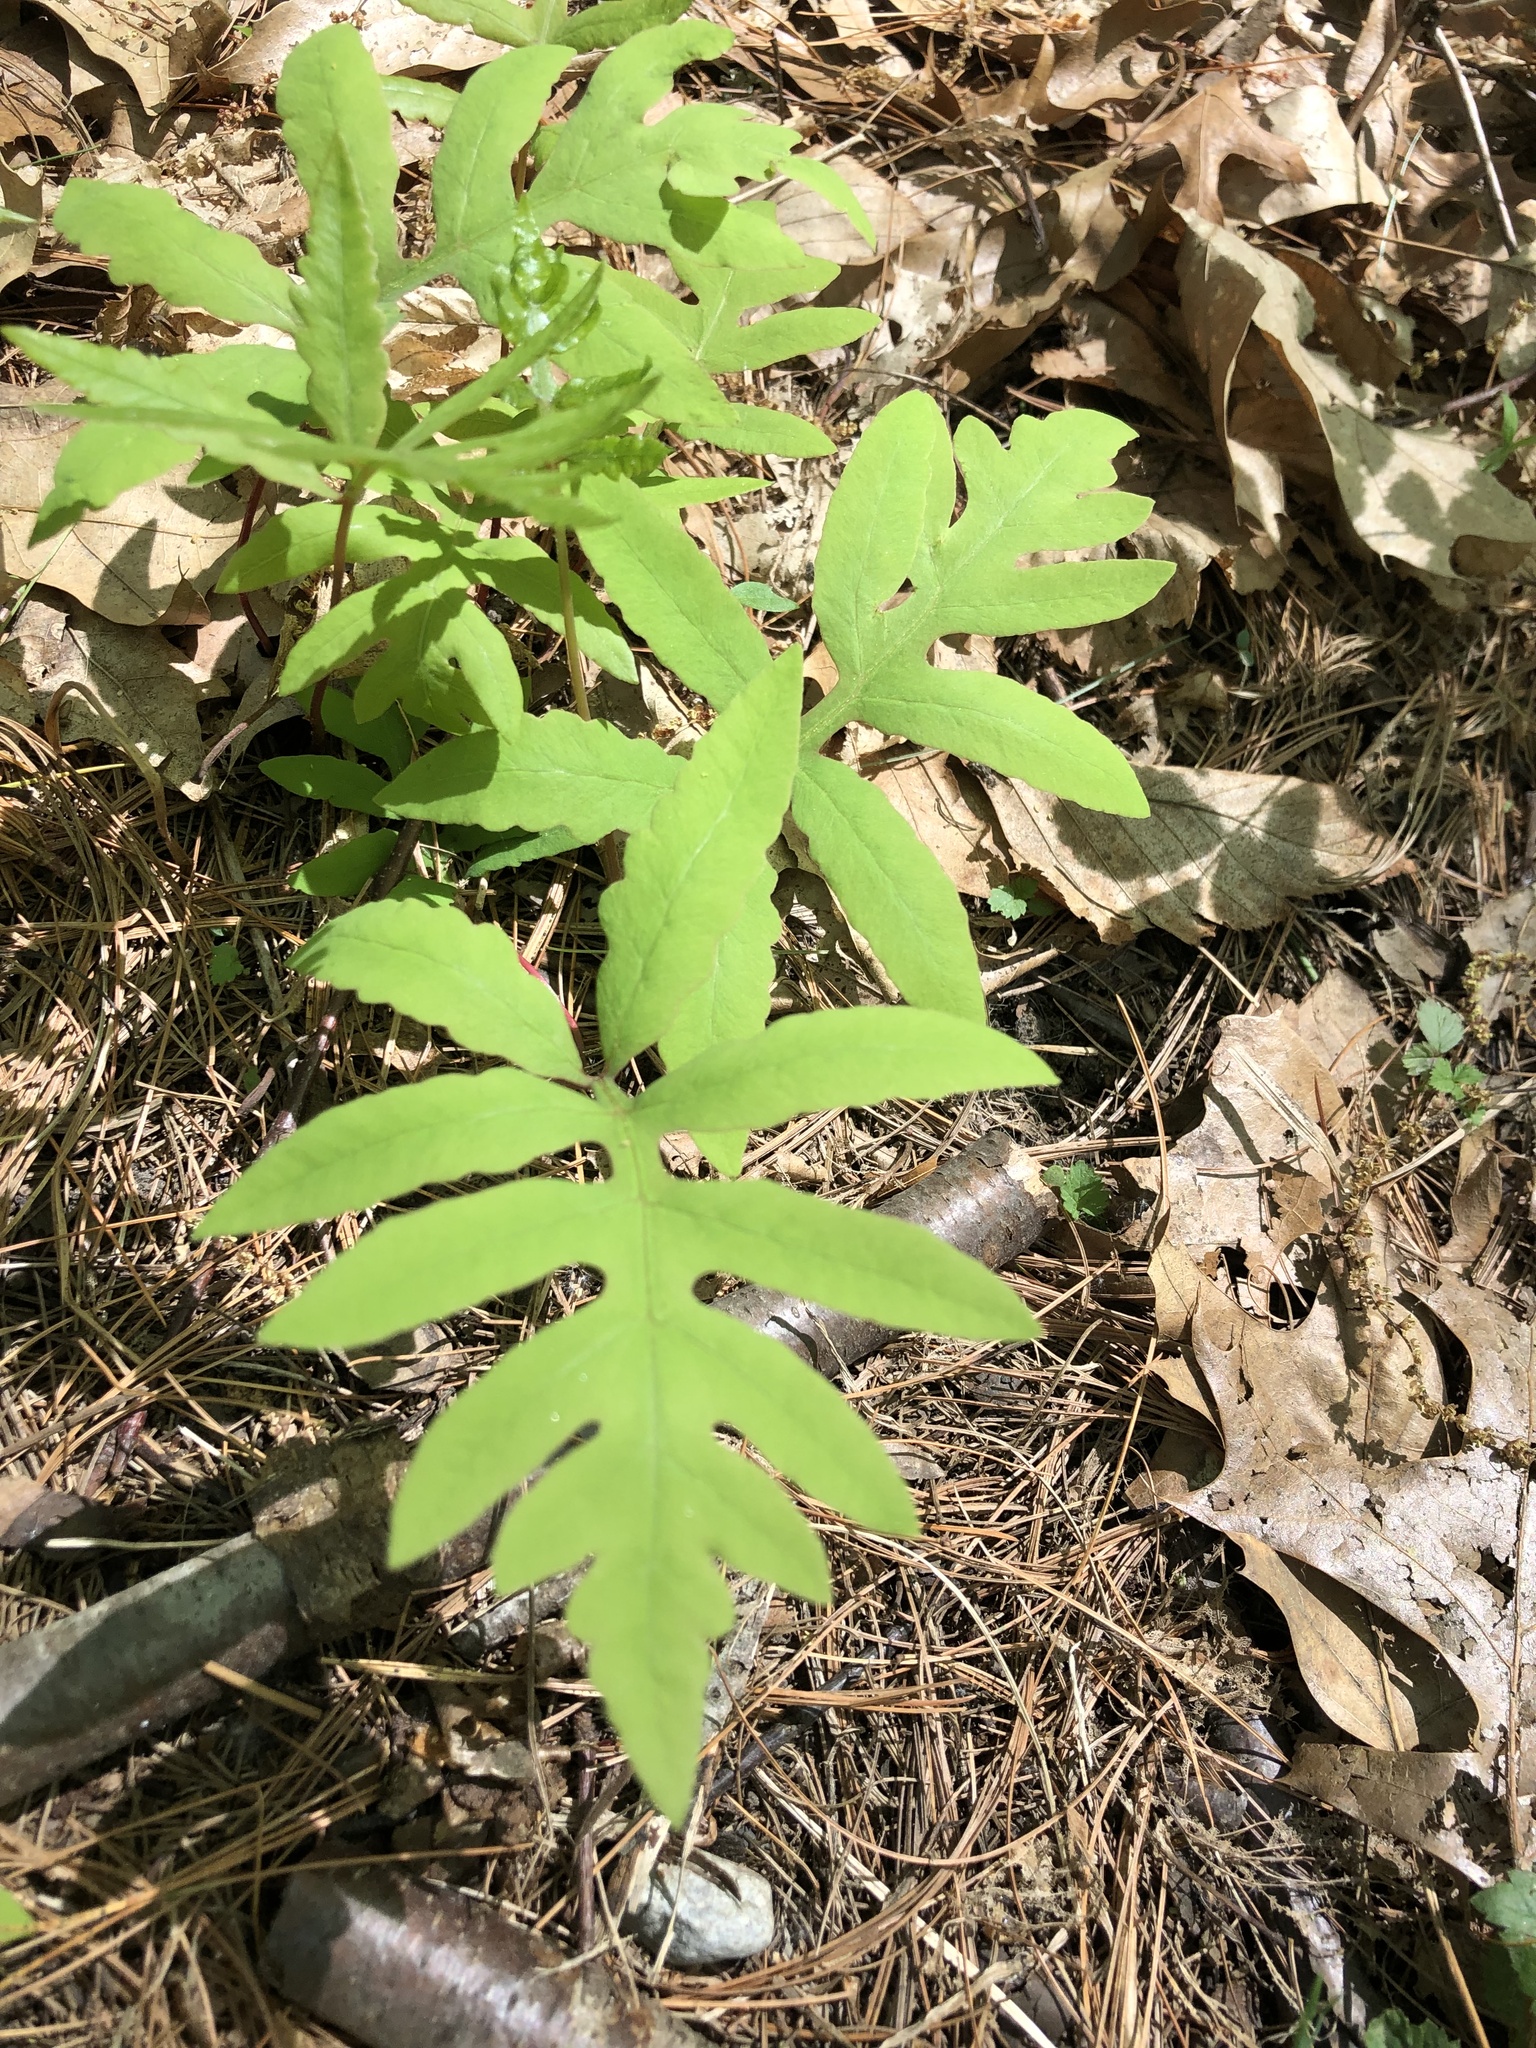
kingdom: Plantae
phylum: Tracheophyta
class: Polypodiopsida
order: Polypodiales
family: Onocleaceae
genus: Onoclea
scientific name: Onoclea sensibilis
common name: Sensitive fern
